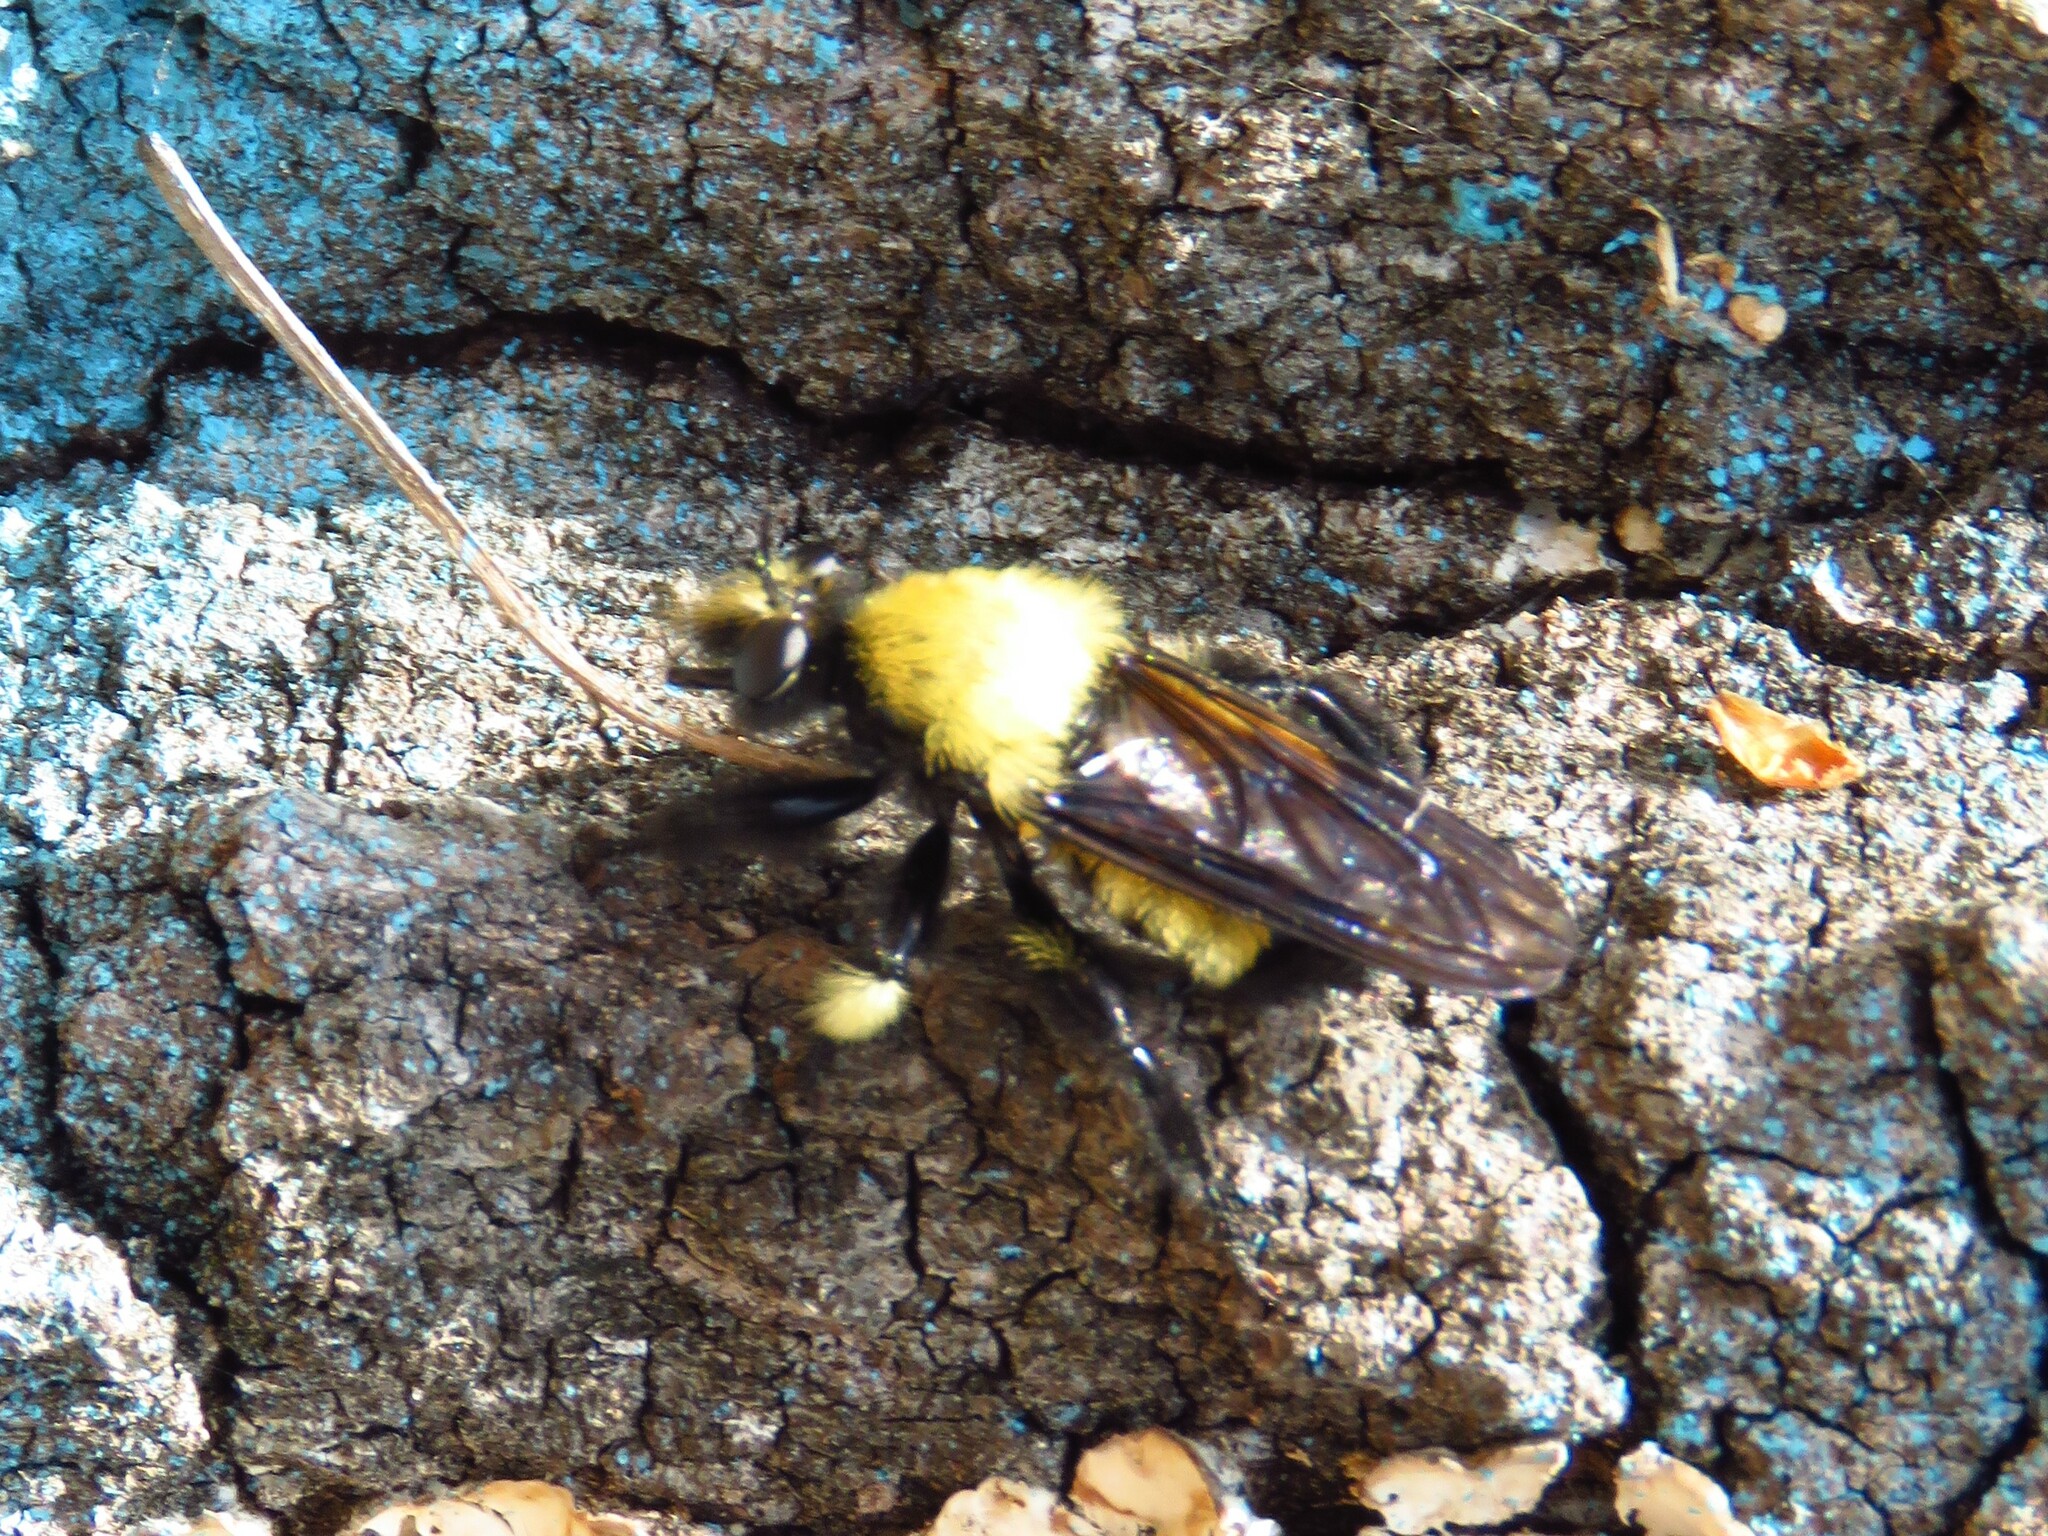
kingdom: Animalia
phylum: Arthropoda
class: Insecta
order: Diptera
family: Asilidae
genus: Laphria
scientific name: Laphria macquarti
